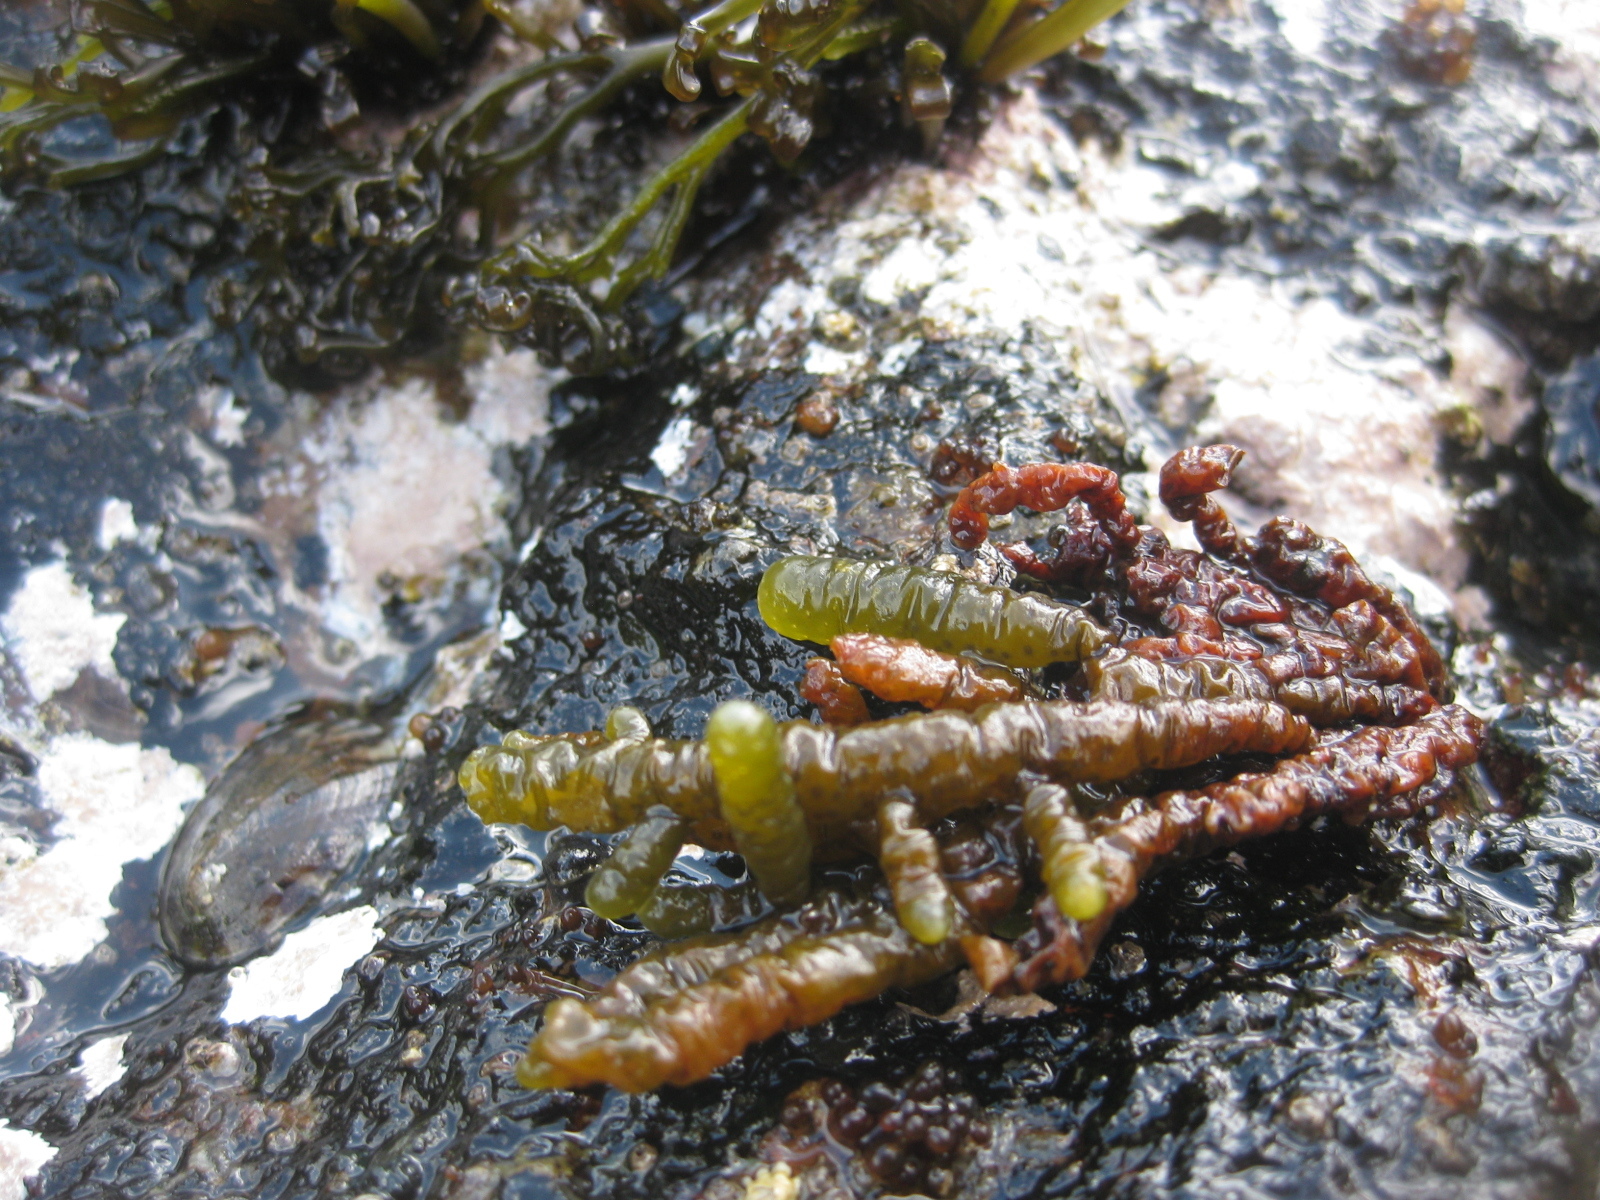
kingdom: Chromista
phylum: Ochrophyta
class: Phaeophyceae
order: Scytothamnales
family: Splachnidiaceae
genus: Splachnidium
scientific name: Splachnidium rugosum
